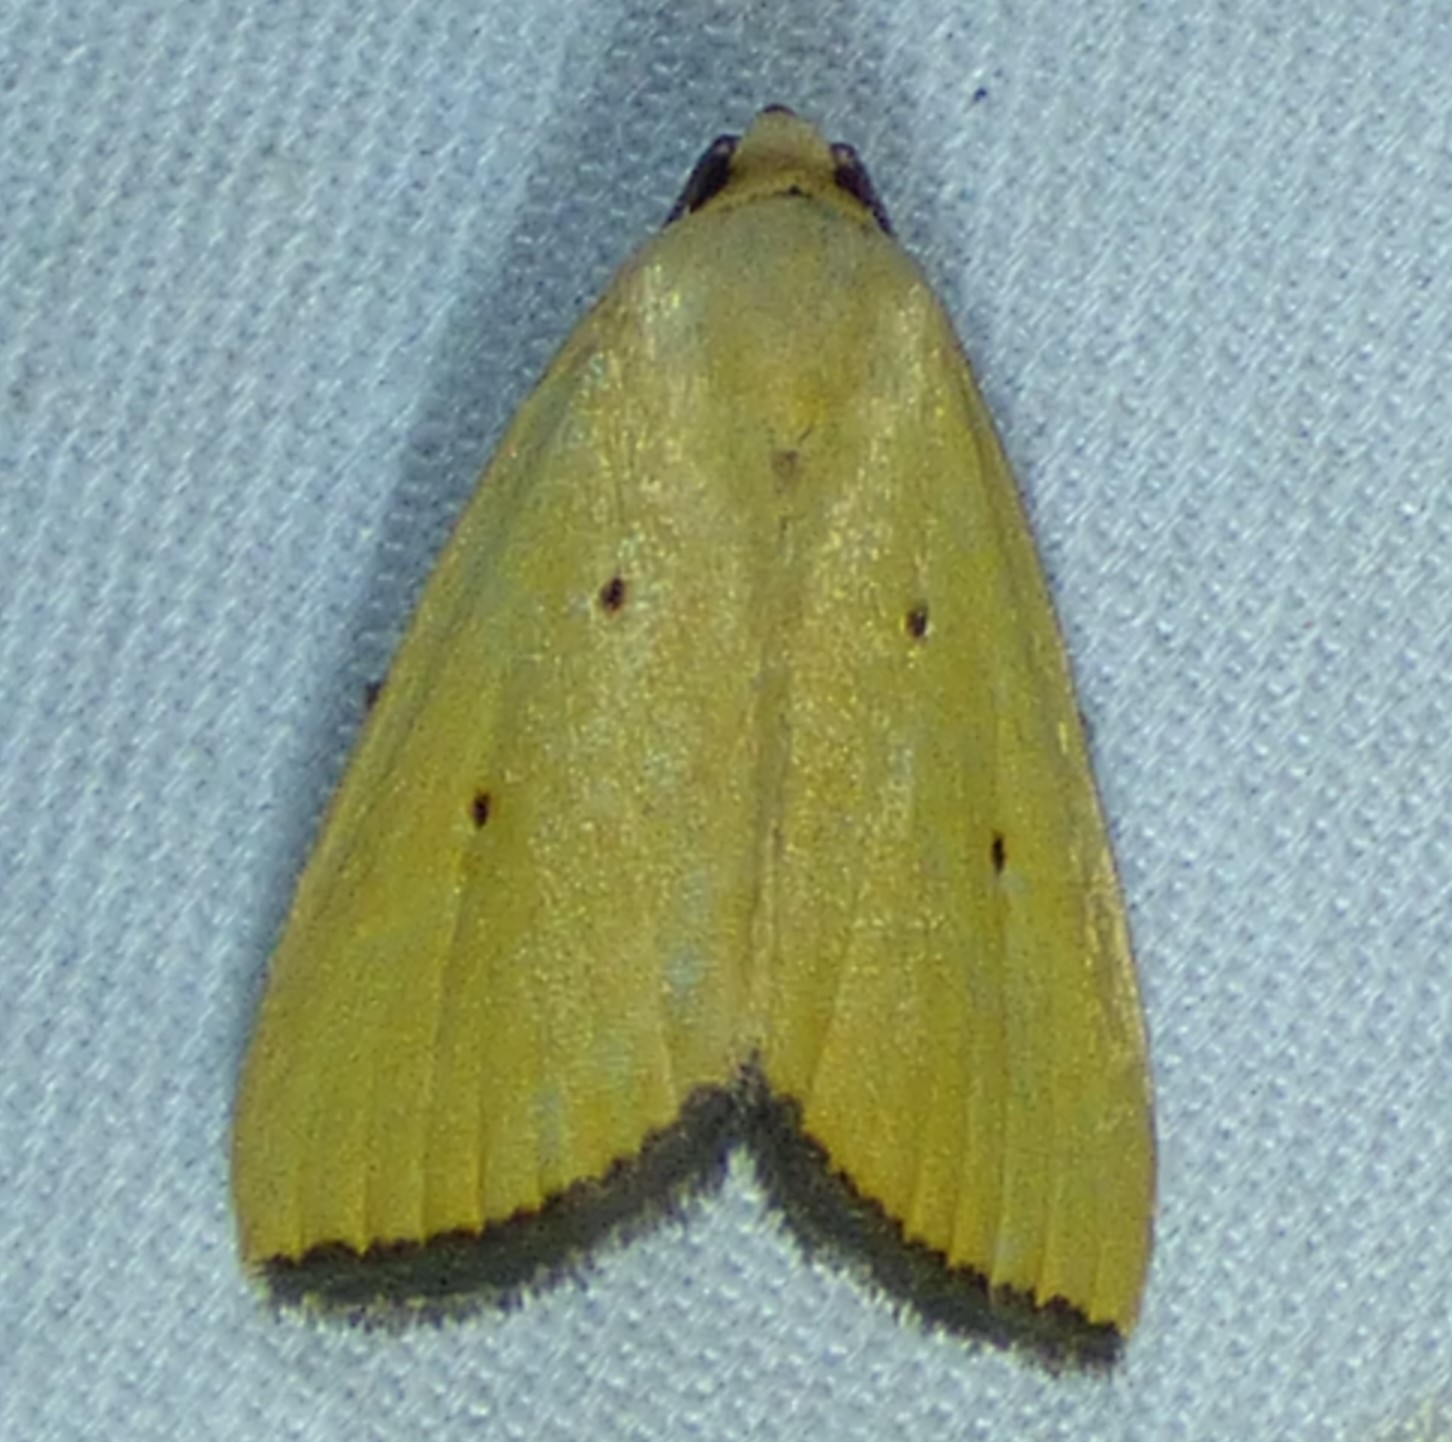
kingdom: Animalia
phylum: Arthropoda
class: Insecta
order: Lepidoptera
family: Noctuidae
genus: Marimatha
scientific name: Marimatha nigrofimbria
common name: Black-bordered lemon moth
